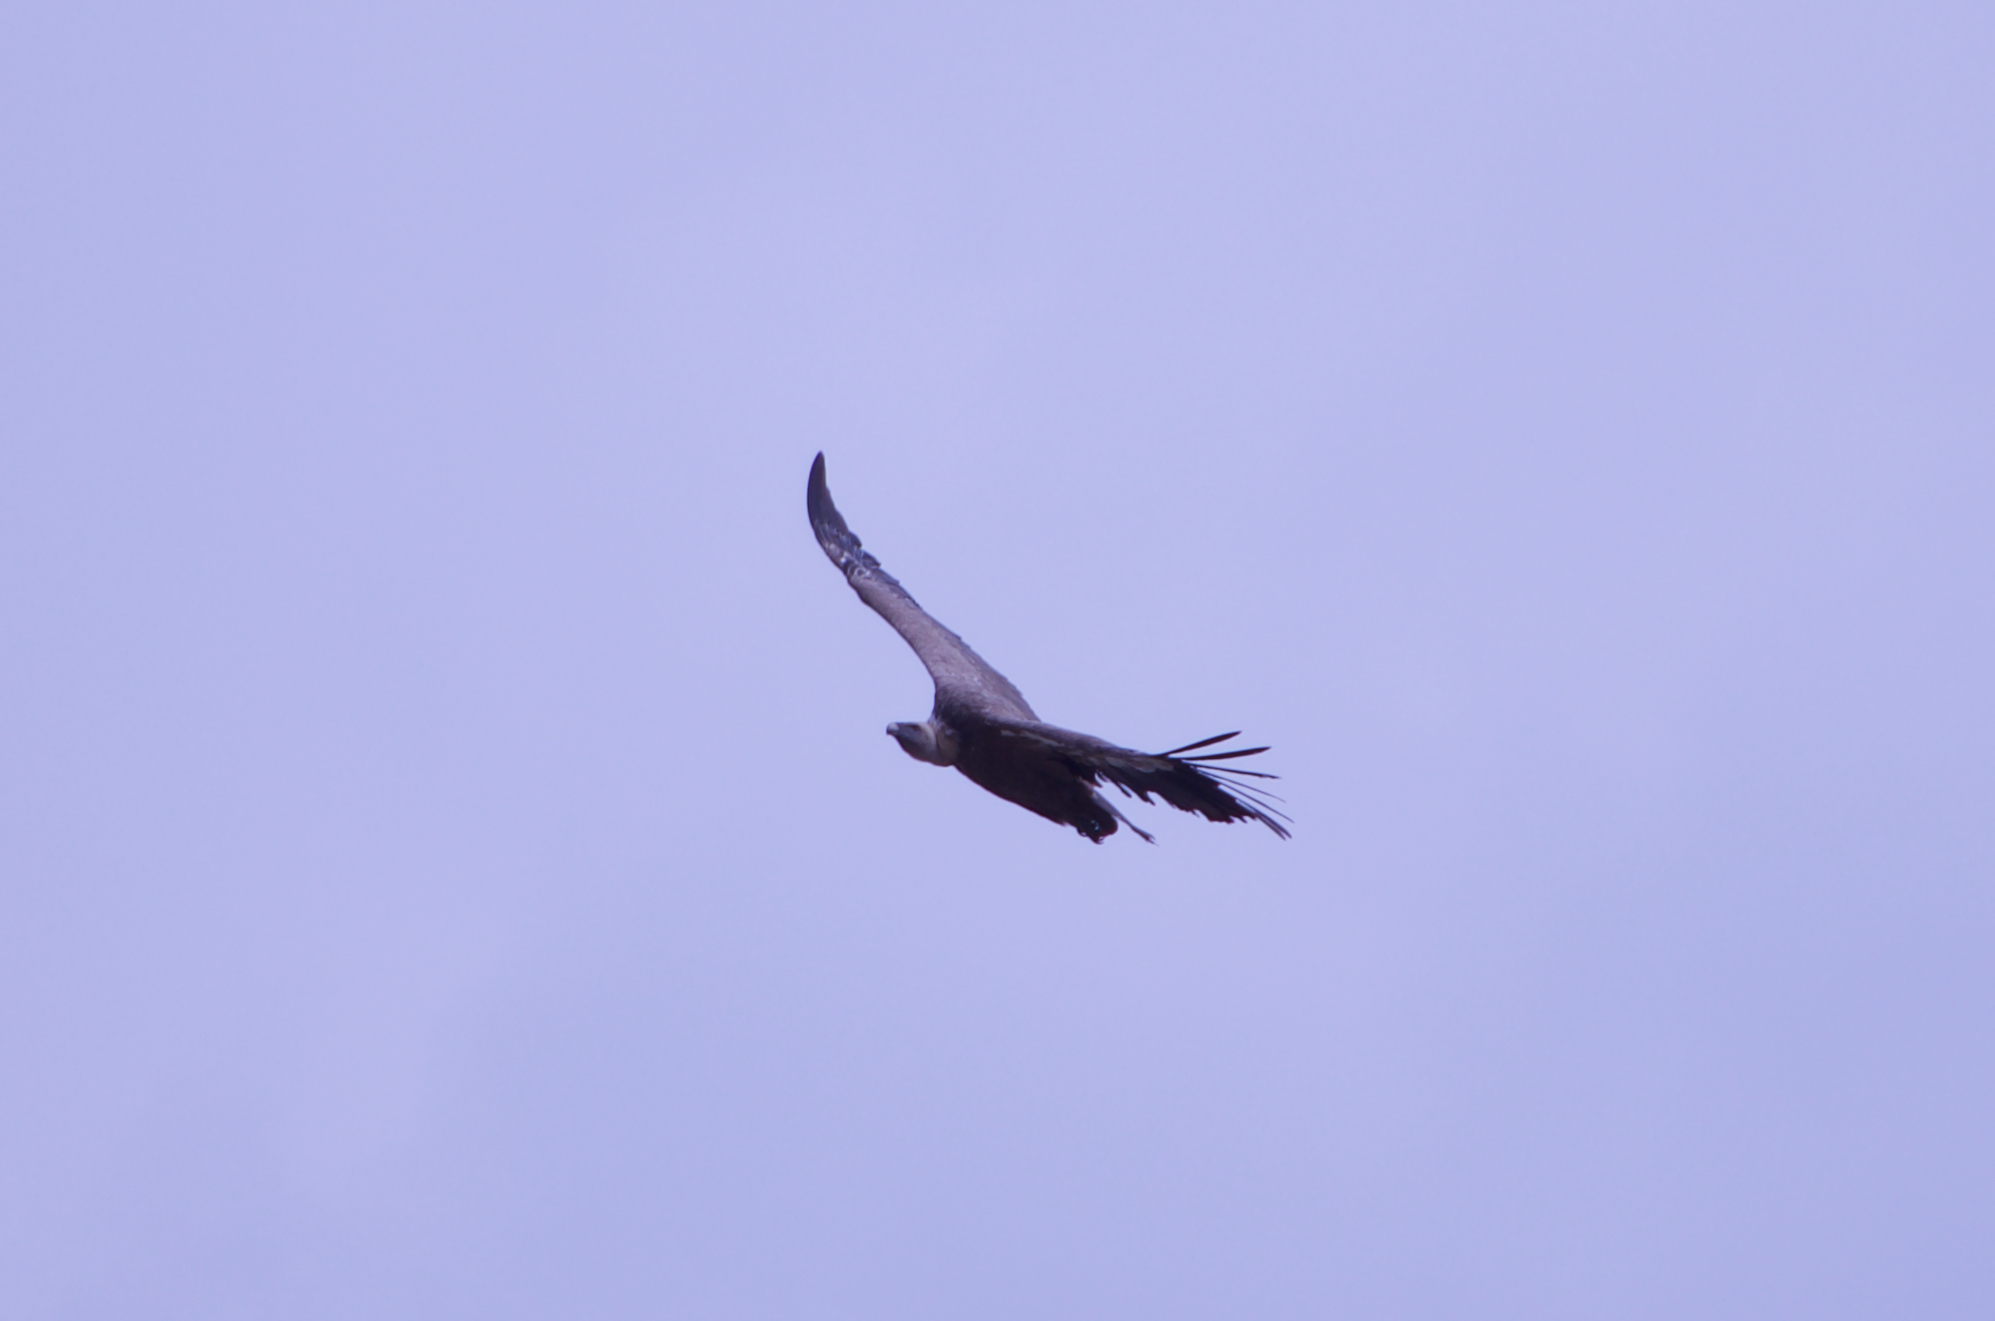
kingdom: Animalia
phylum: Chordata
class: Aves
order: Accipitriformes
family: Accipitridae
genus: Gyps
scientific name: Gyps fulvus
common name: Griffon vulture
